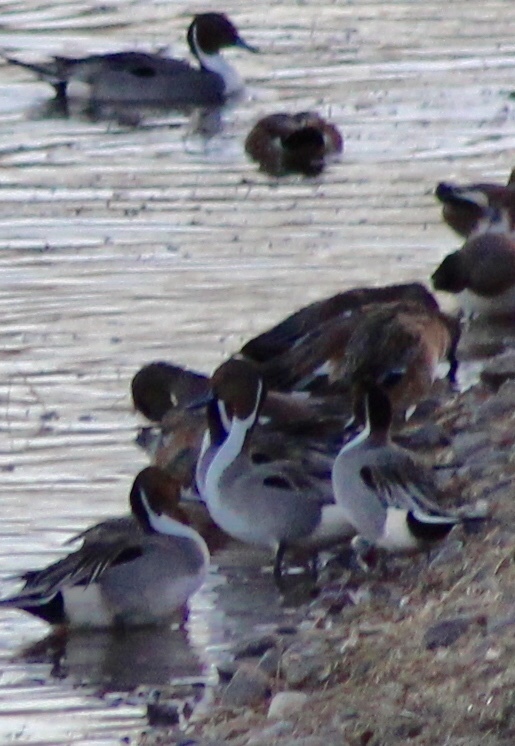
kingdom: Animalia
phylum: Chordata
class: Aves
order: Anseriformes
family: Anatidae
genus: Anas
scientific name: Anas acuta
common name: Northern pintail
